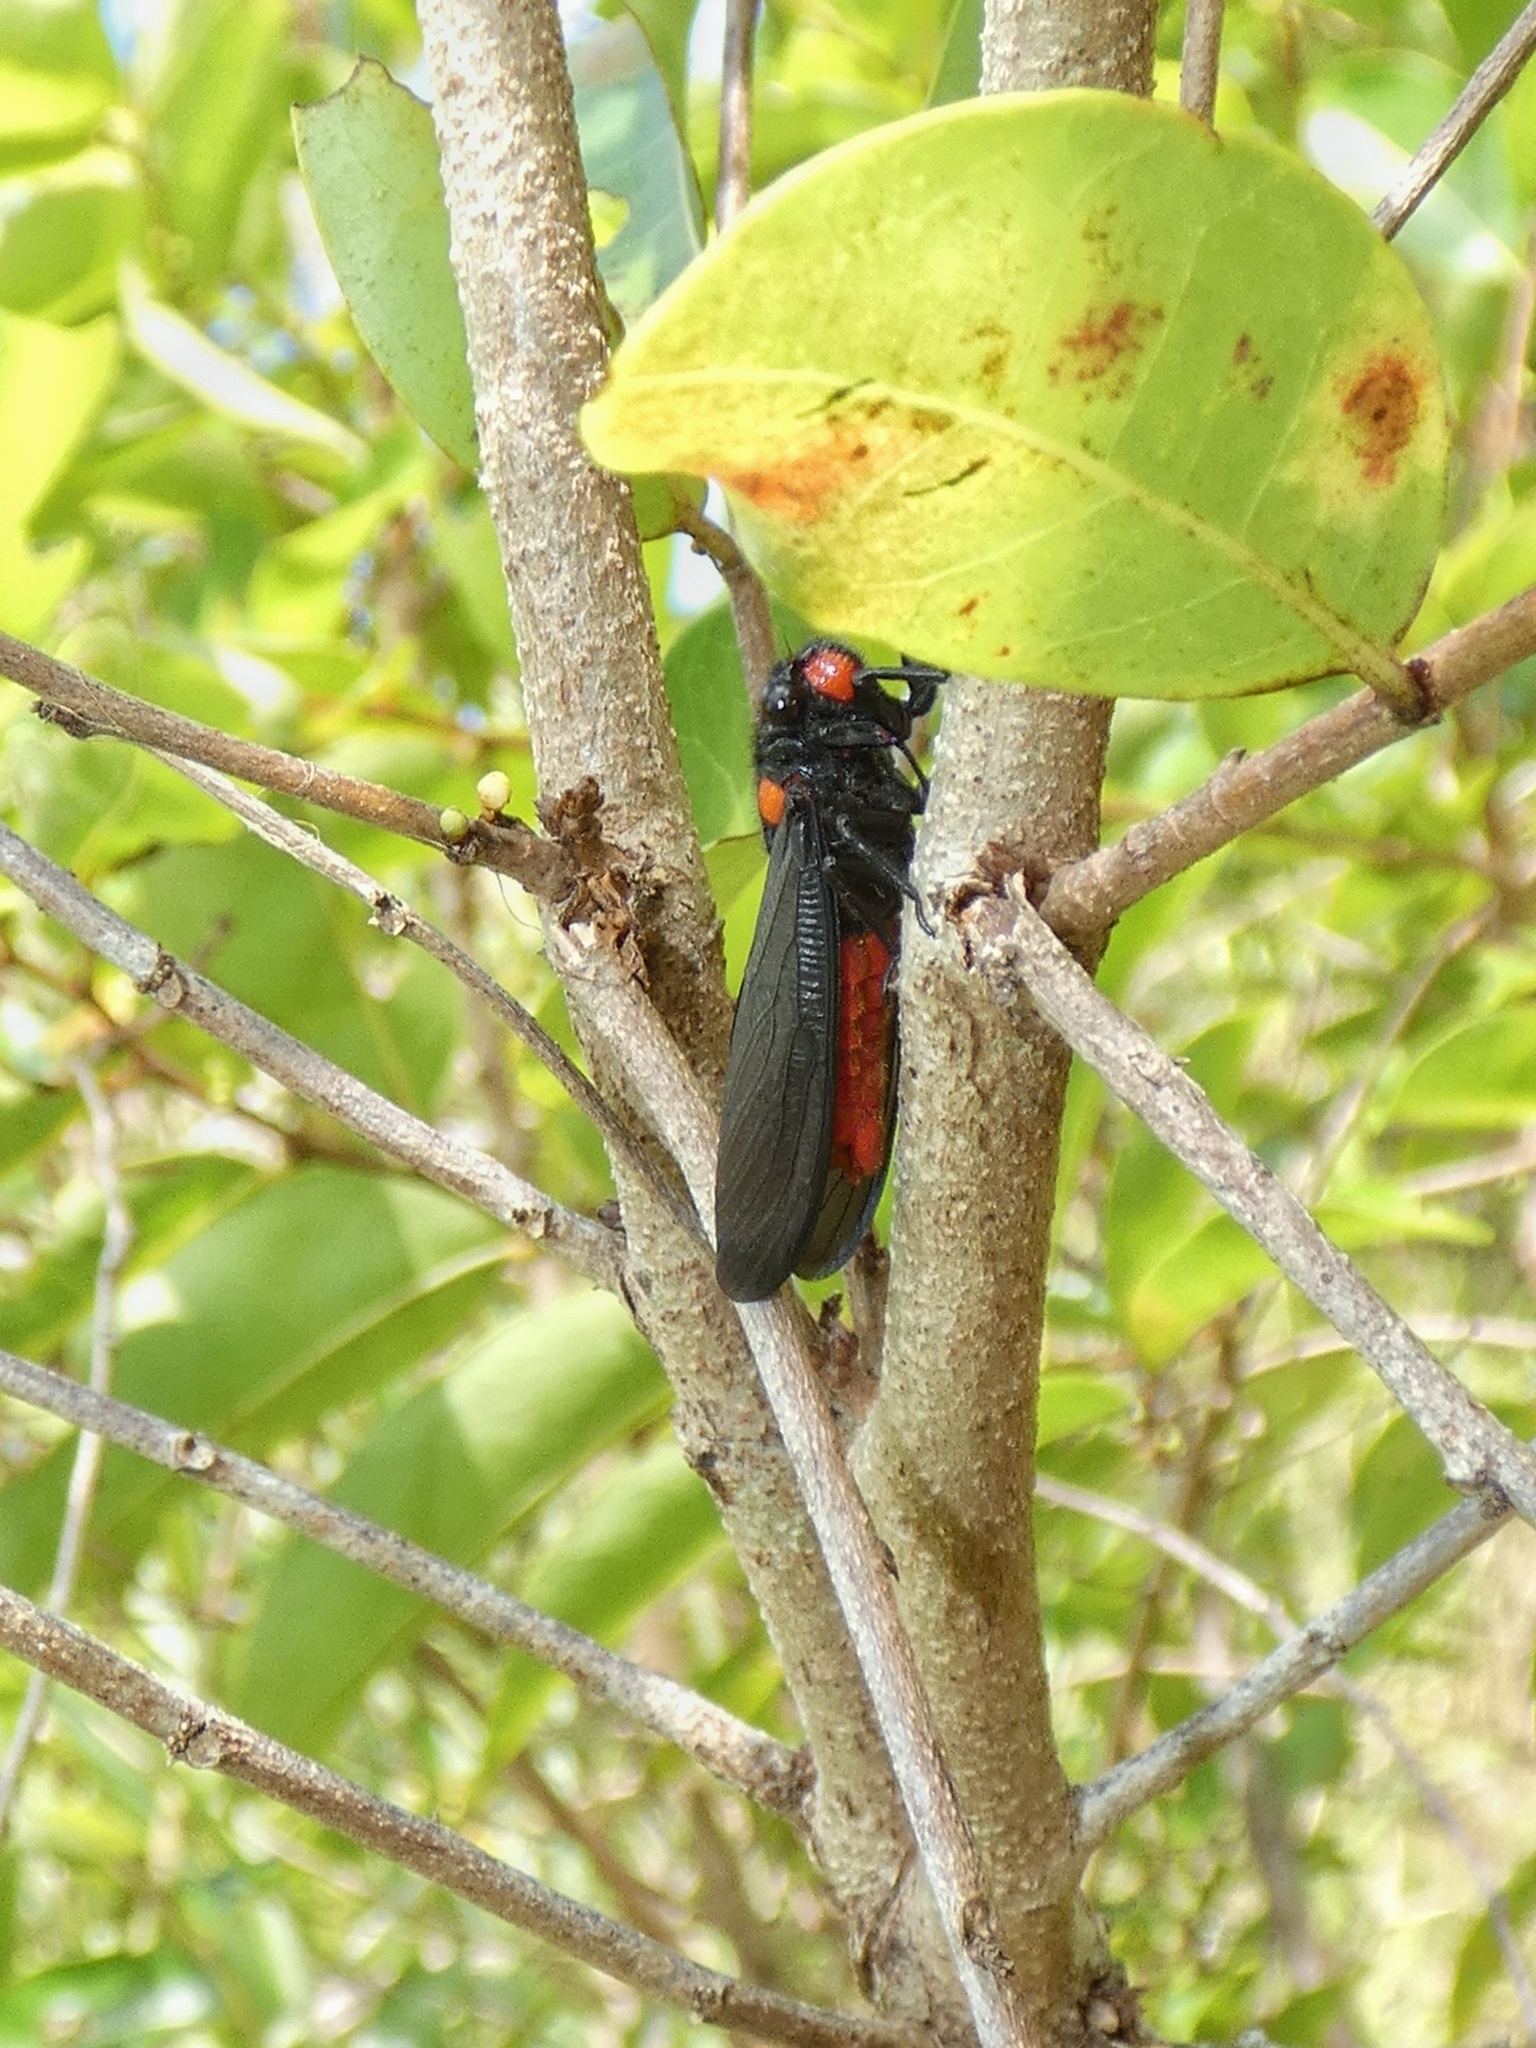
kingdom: Animalia
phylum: Arthropoda
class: Insecta
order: Hemiptera
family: Cicadidae
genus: Huechys
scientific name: Huechys sanguinea
